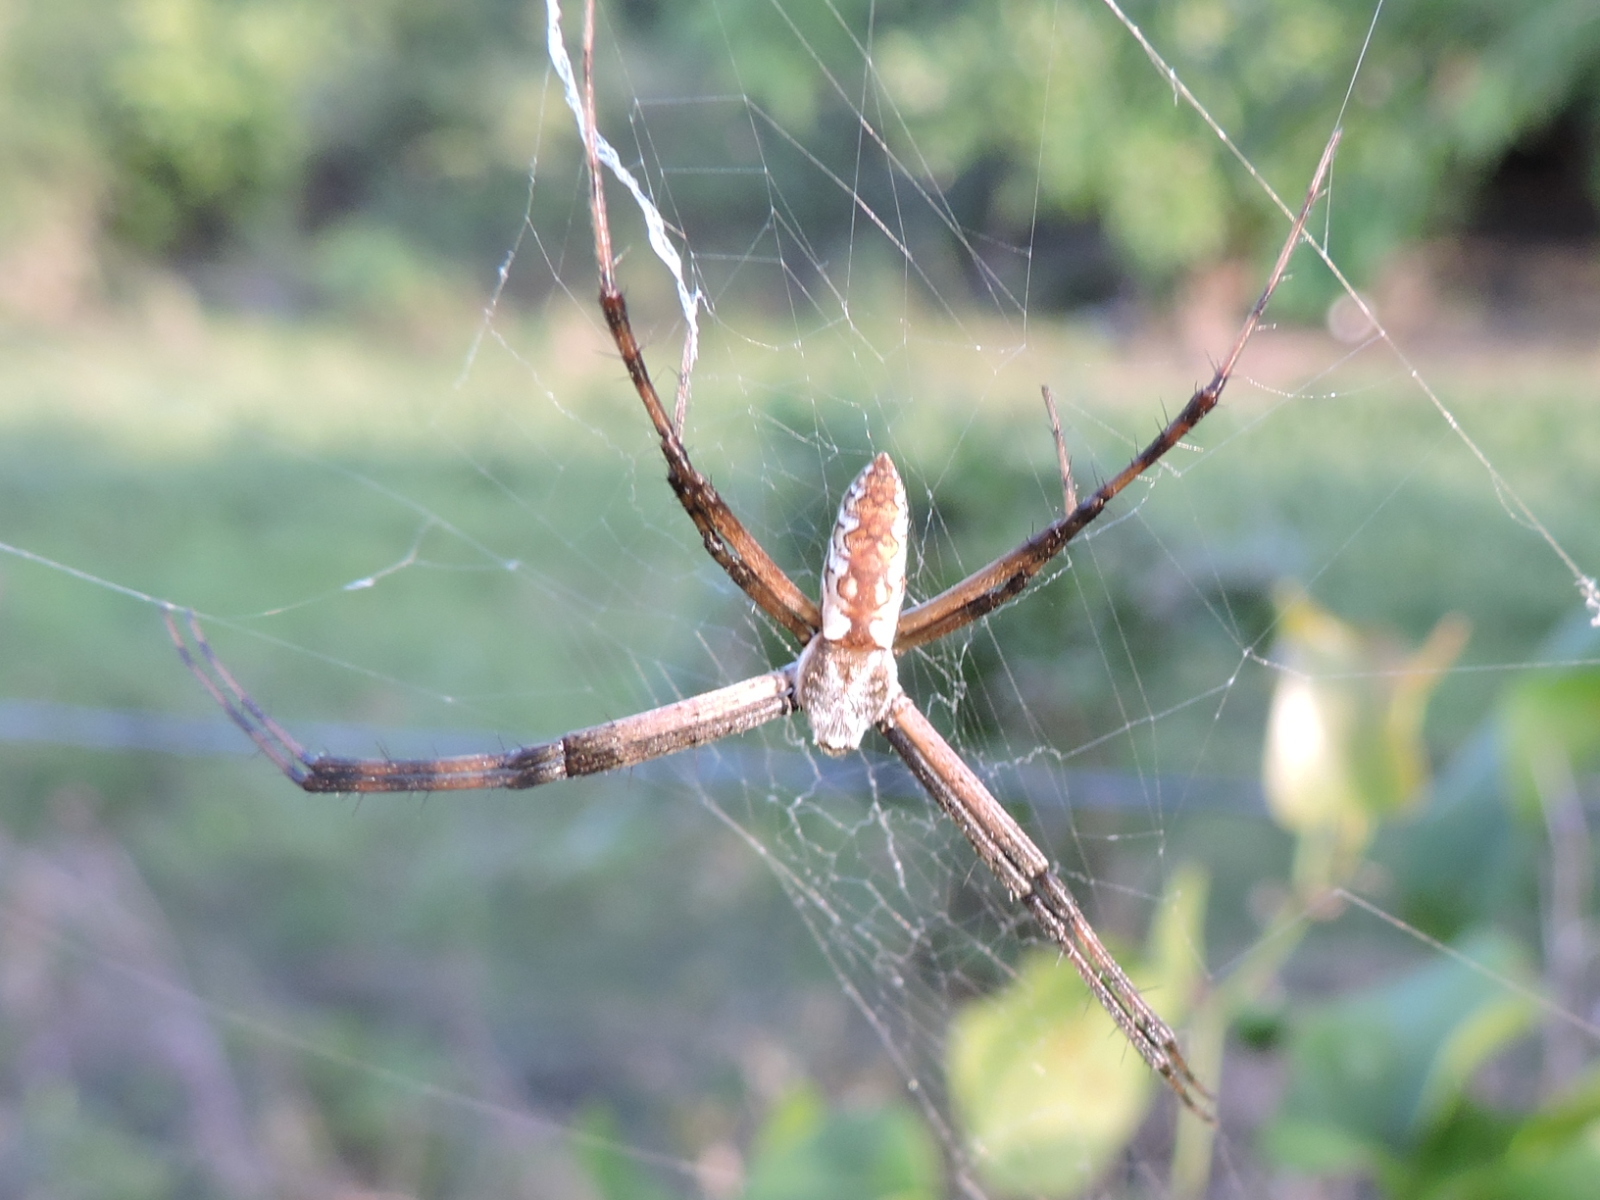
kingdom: Animalia
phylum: Arthropoda
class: Arachnida
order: Araneae
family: Araneidae
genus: Argiope
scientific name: Argiope aurantia
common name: Orb weavers
